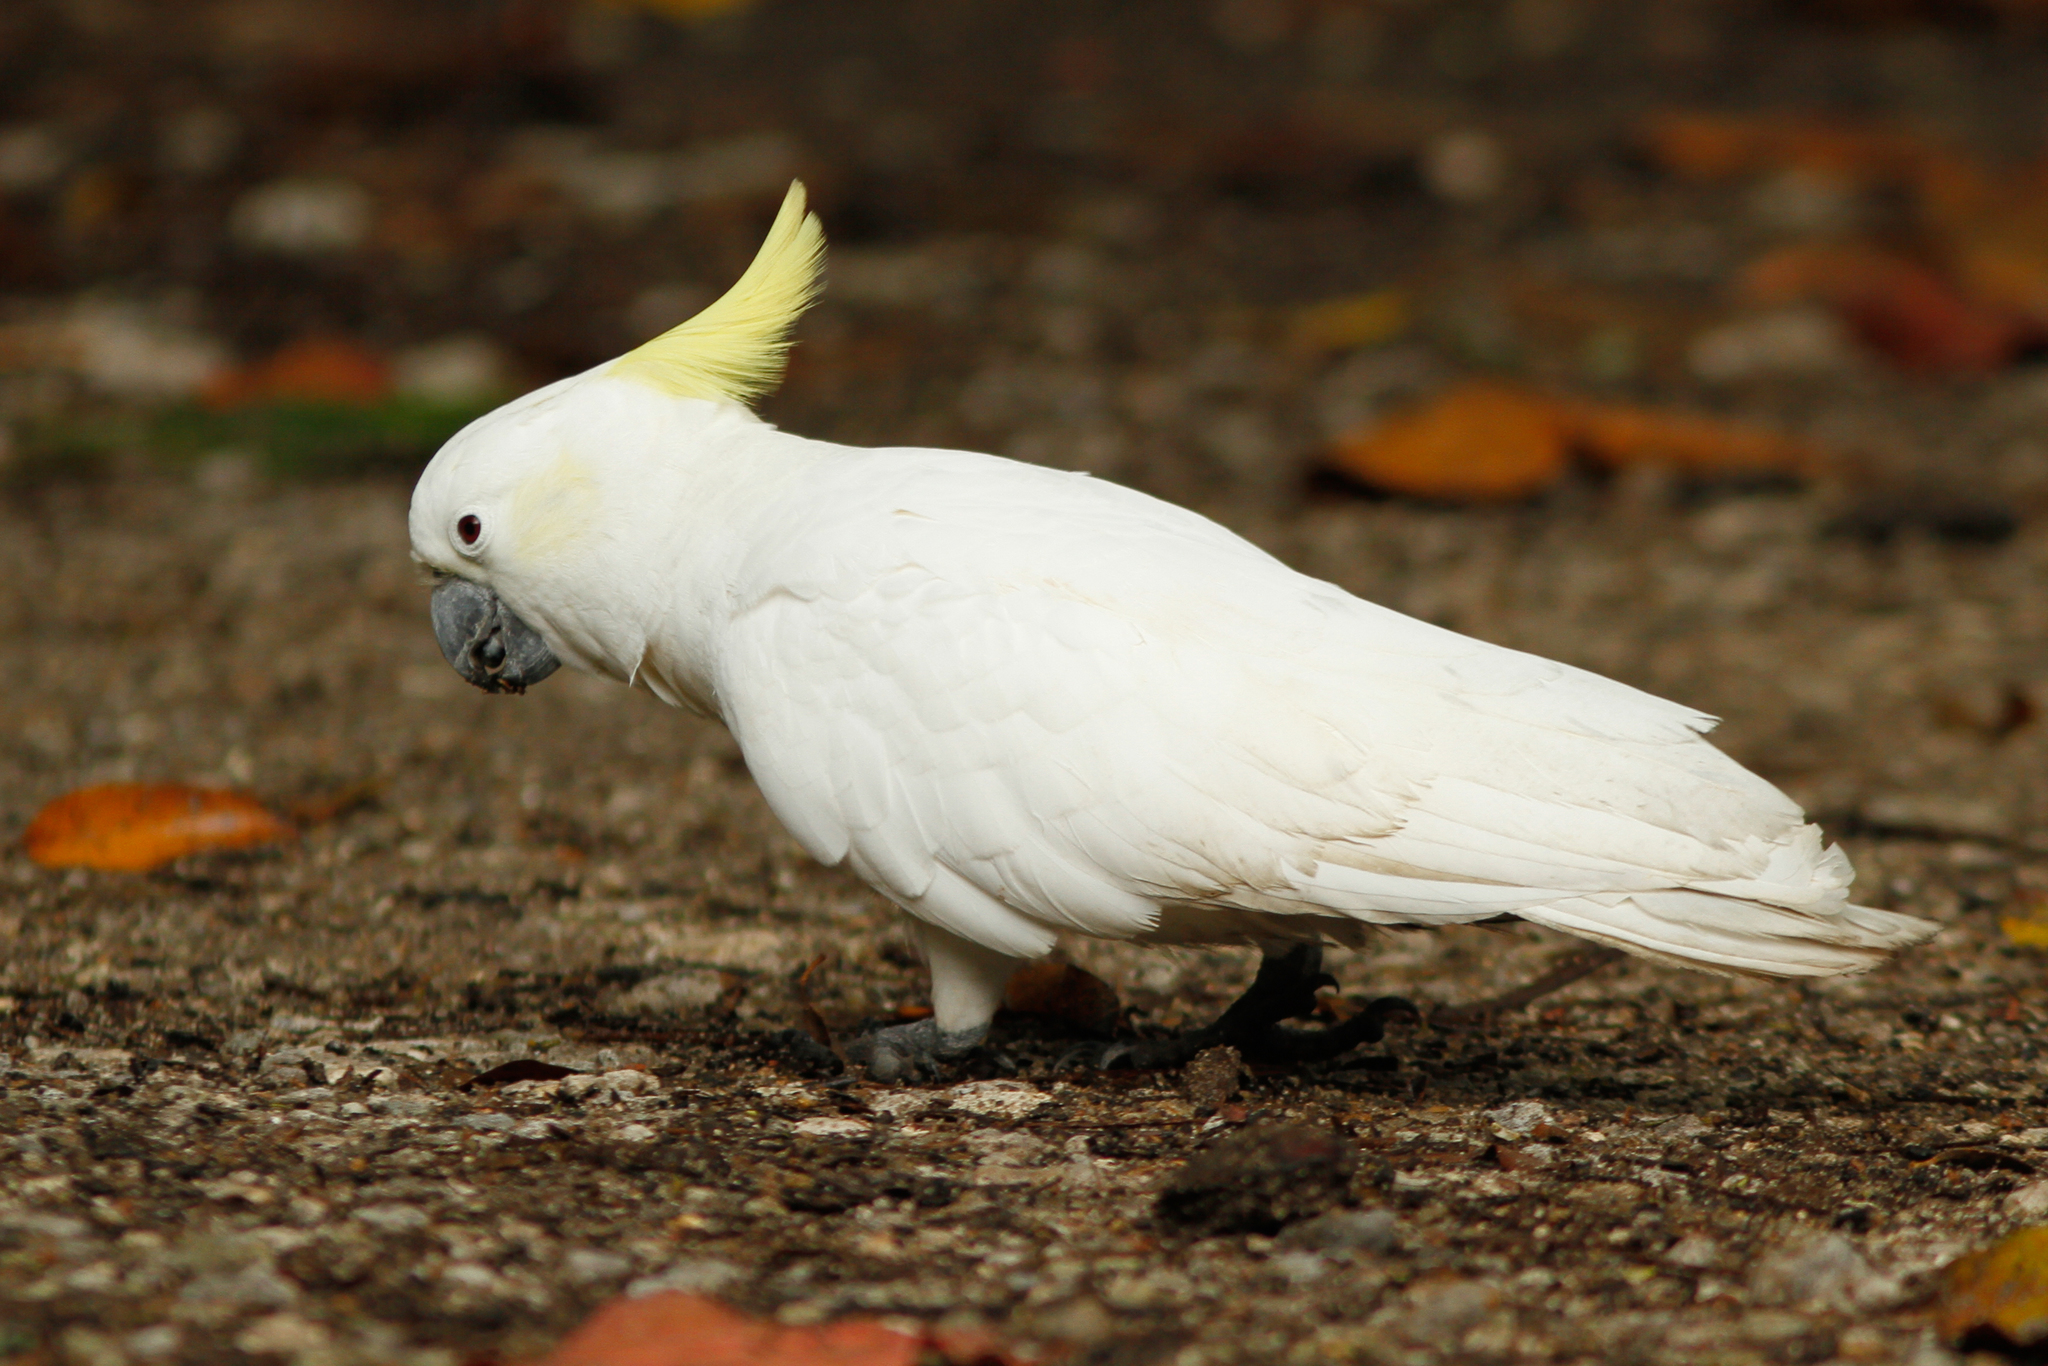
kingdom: Animalia
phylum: Chordata
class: Aves
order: Psittaciformes
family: Psittacidae
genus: Cacatua
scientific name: Cacatua galerita
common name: Sulphur-crested cockatoo
